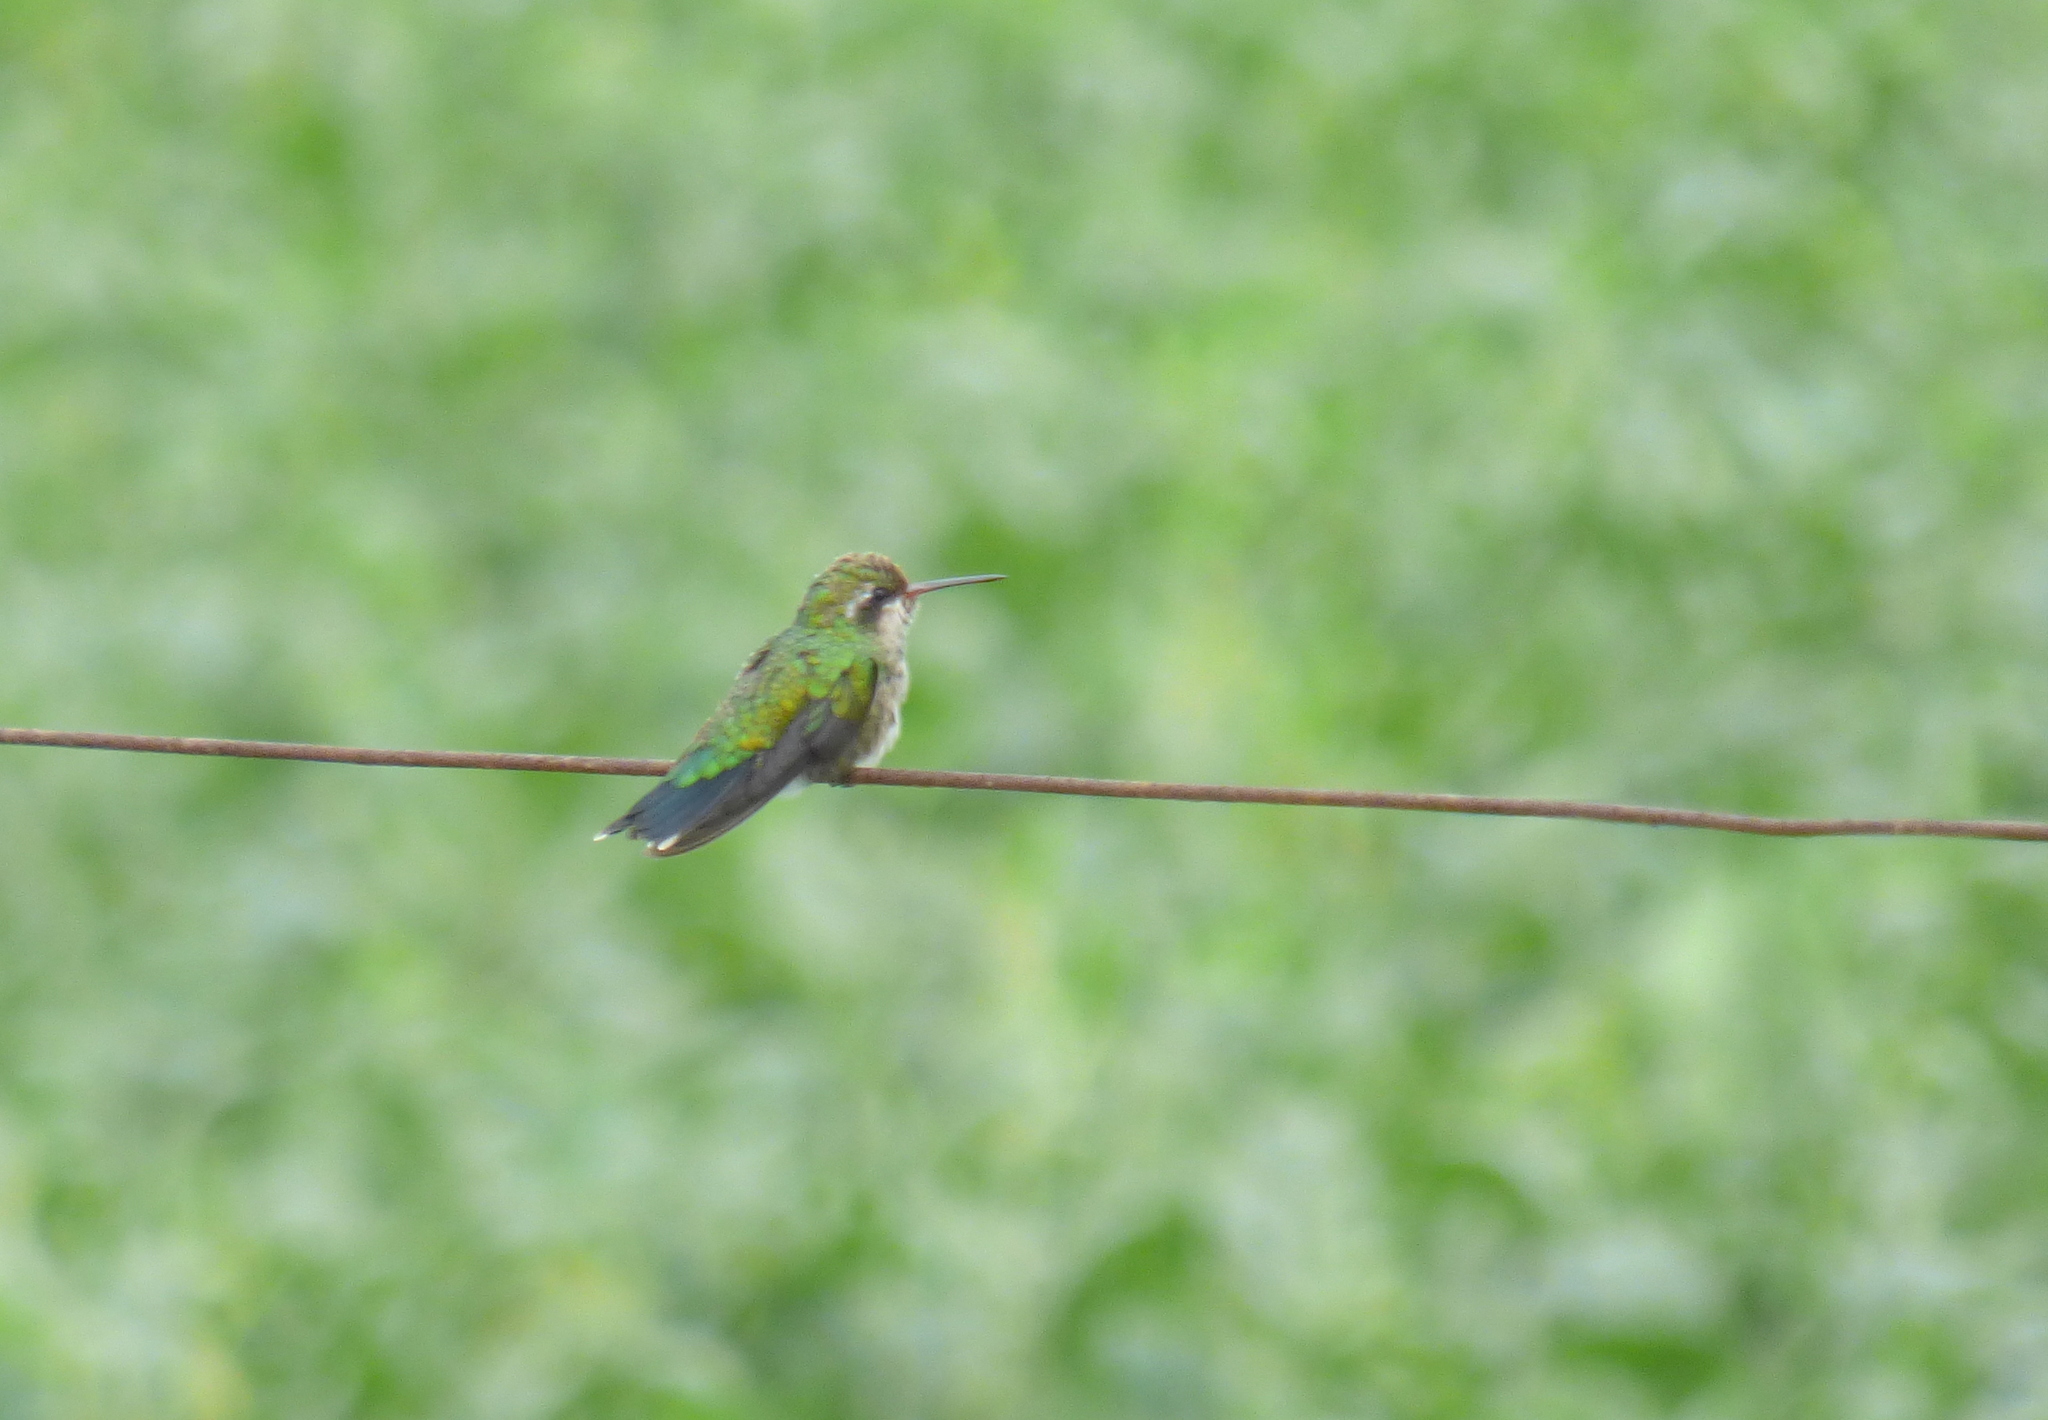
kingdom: Animalia
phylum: Chordata
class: Aves
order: Apodiformes
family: Trochilidae
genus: Chlorostilbon
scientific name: Chlorostilbon lucidus
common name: Glittering-bellied emerald
